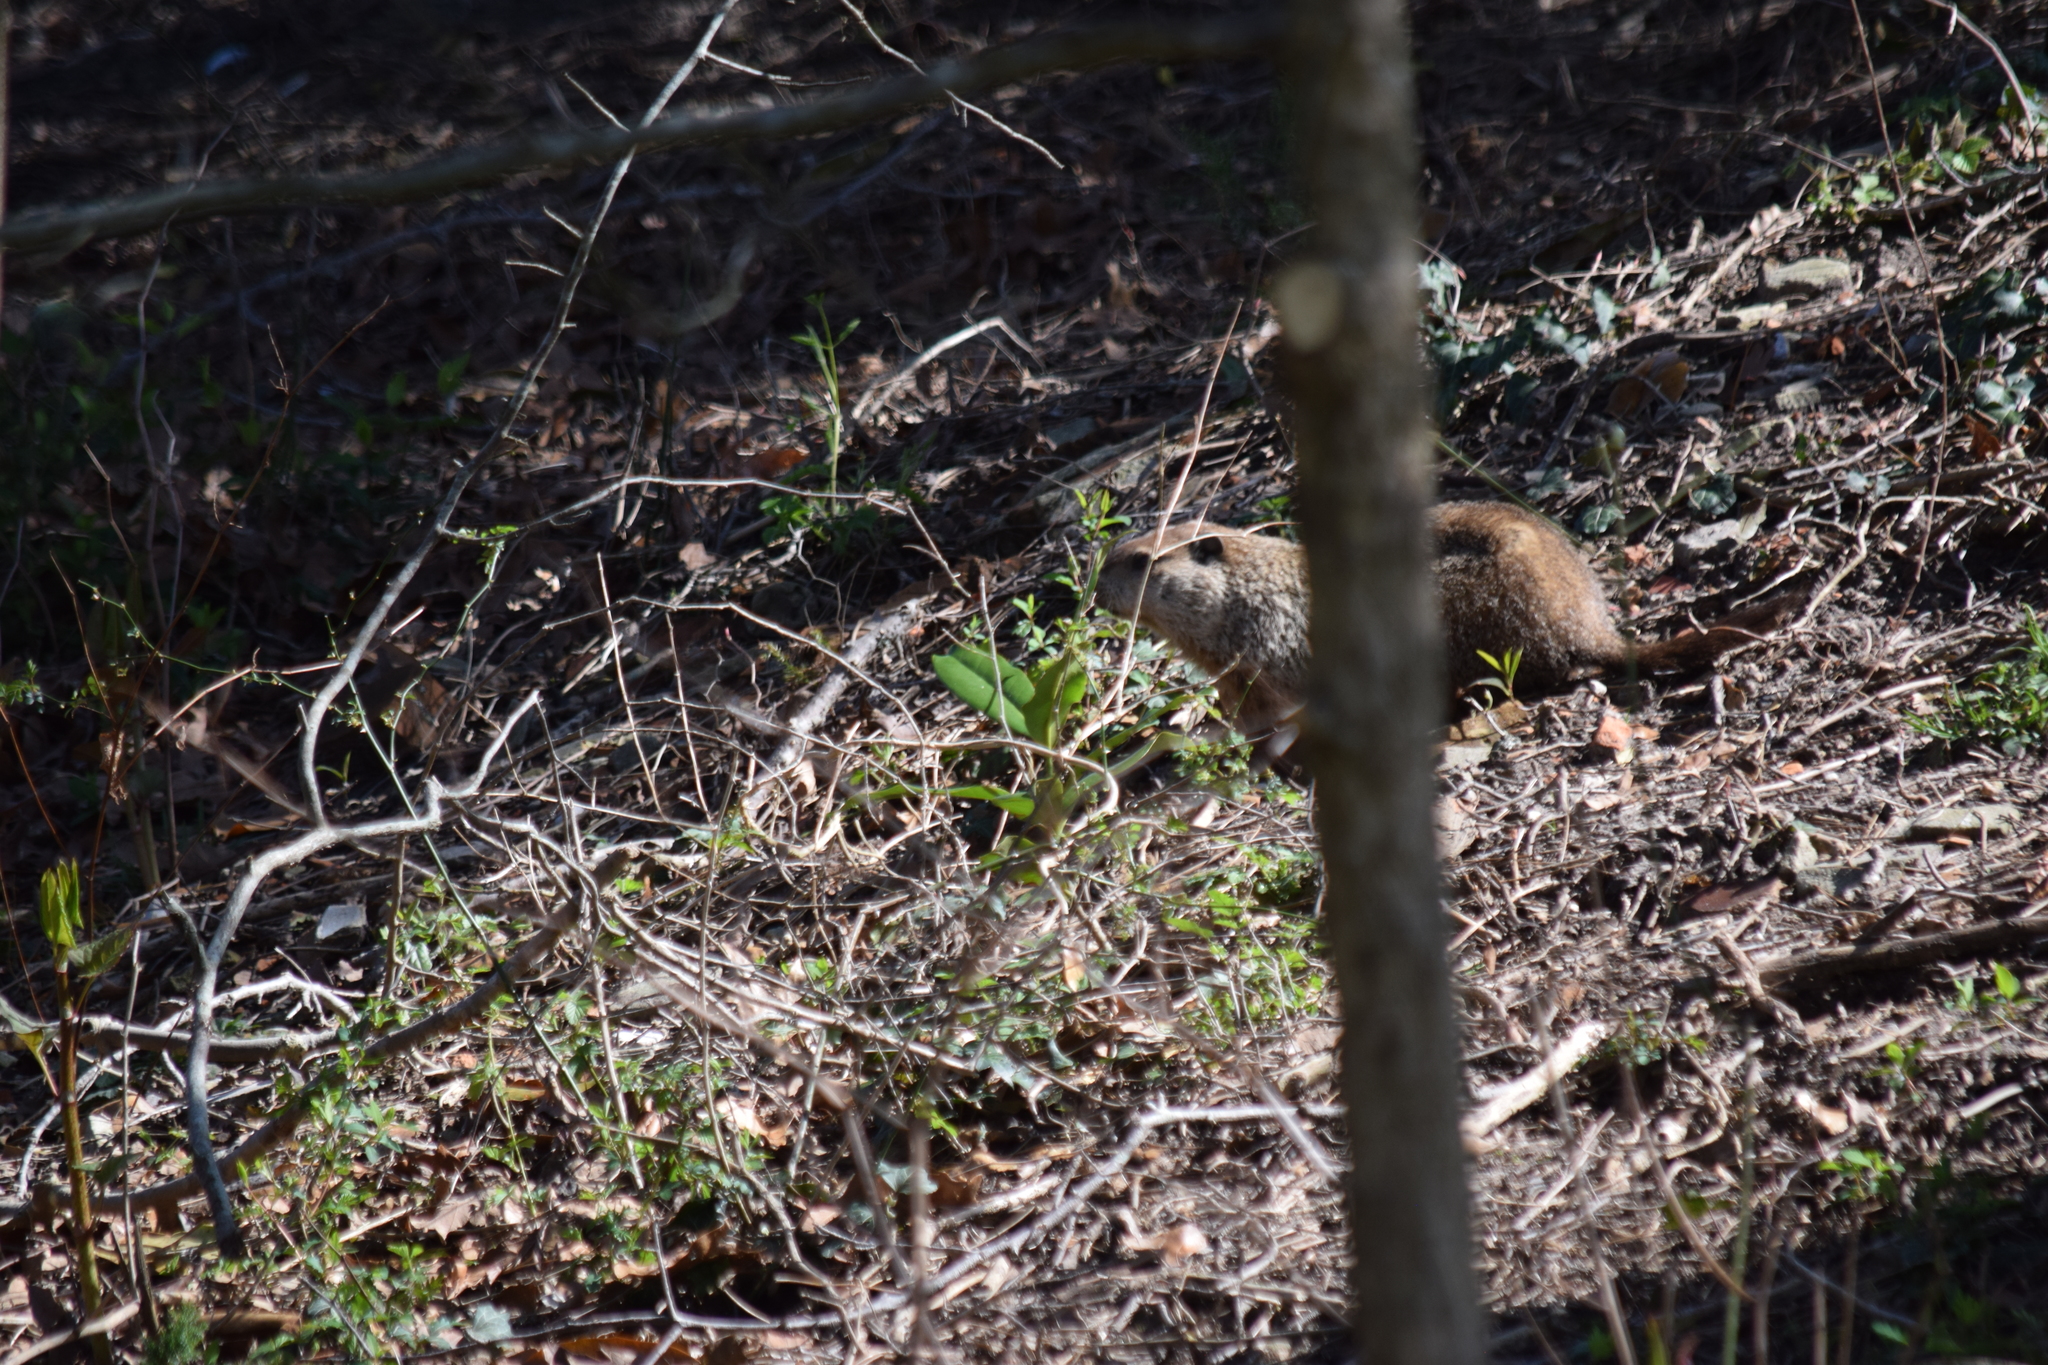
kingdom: Animalia
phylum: Chordata
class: Mammalia
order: Rodentia
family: Sciuridae
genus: Marmota
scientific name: Marmota monax
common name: Groundhog
